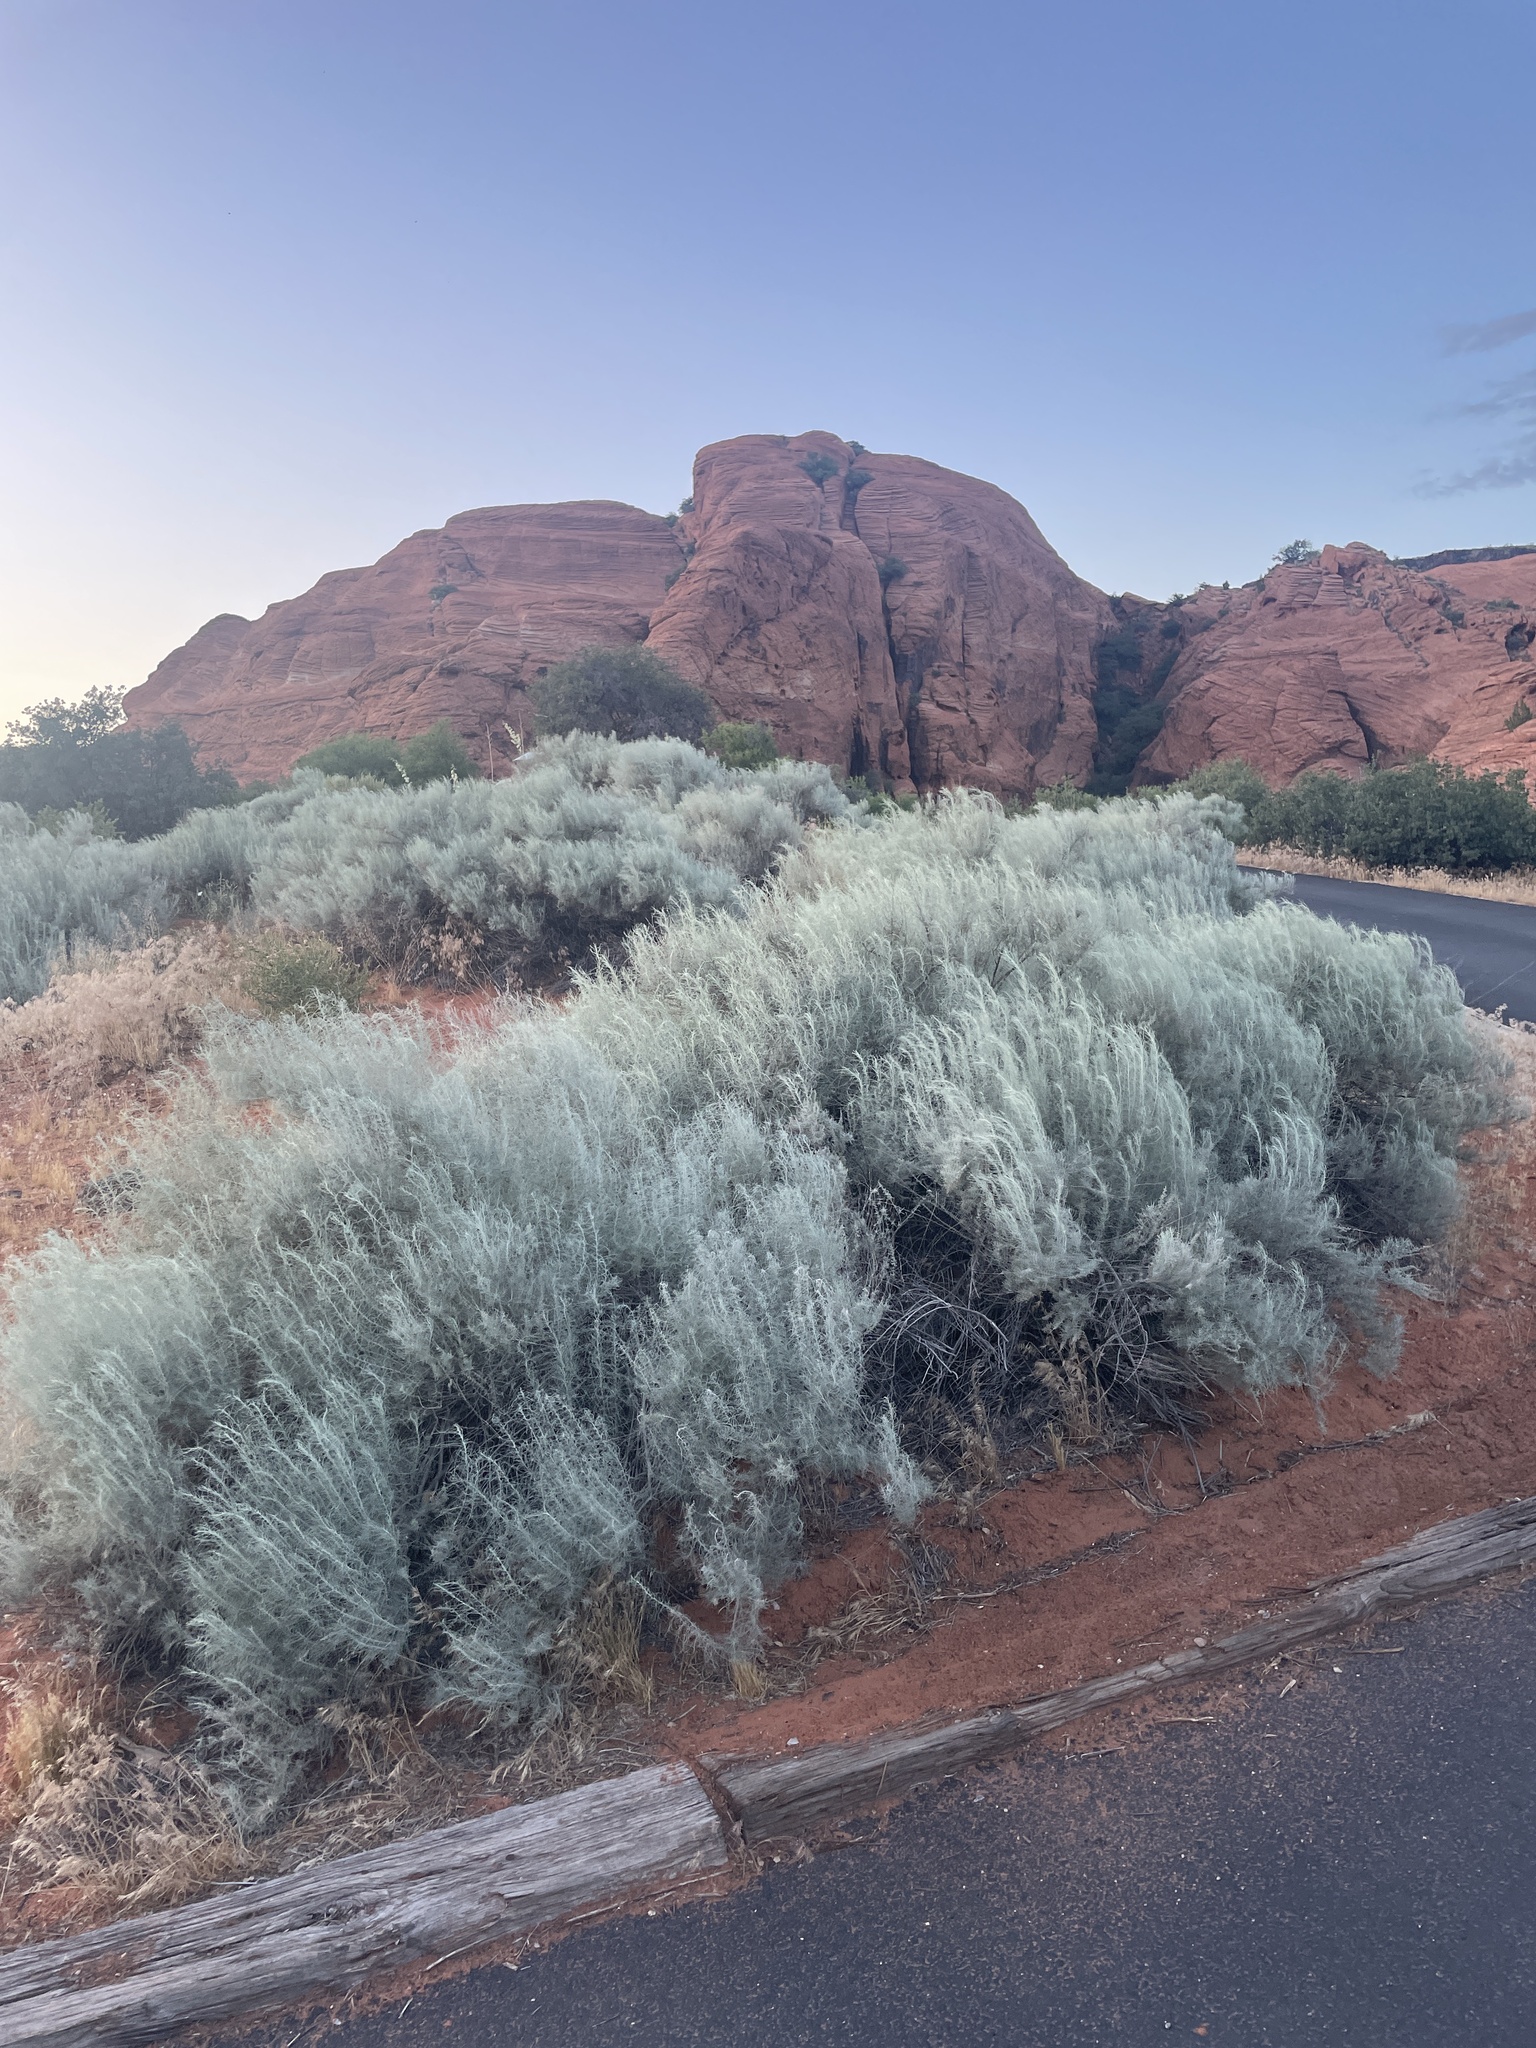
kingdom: Plantae
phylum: Tracheophyta
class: Magnoliopsida
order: Asterales
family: Asteraceae
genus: Artemisia
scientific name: Artemisia filifolia
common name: Sand-sage
